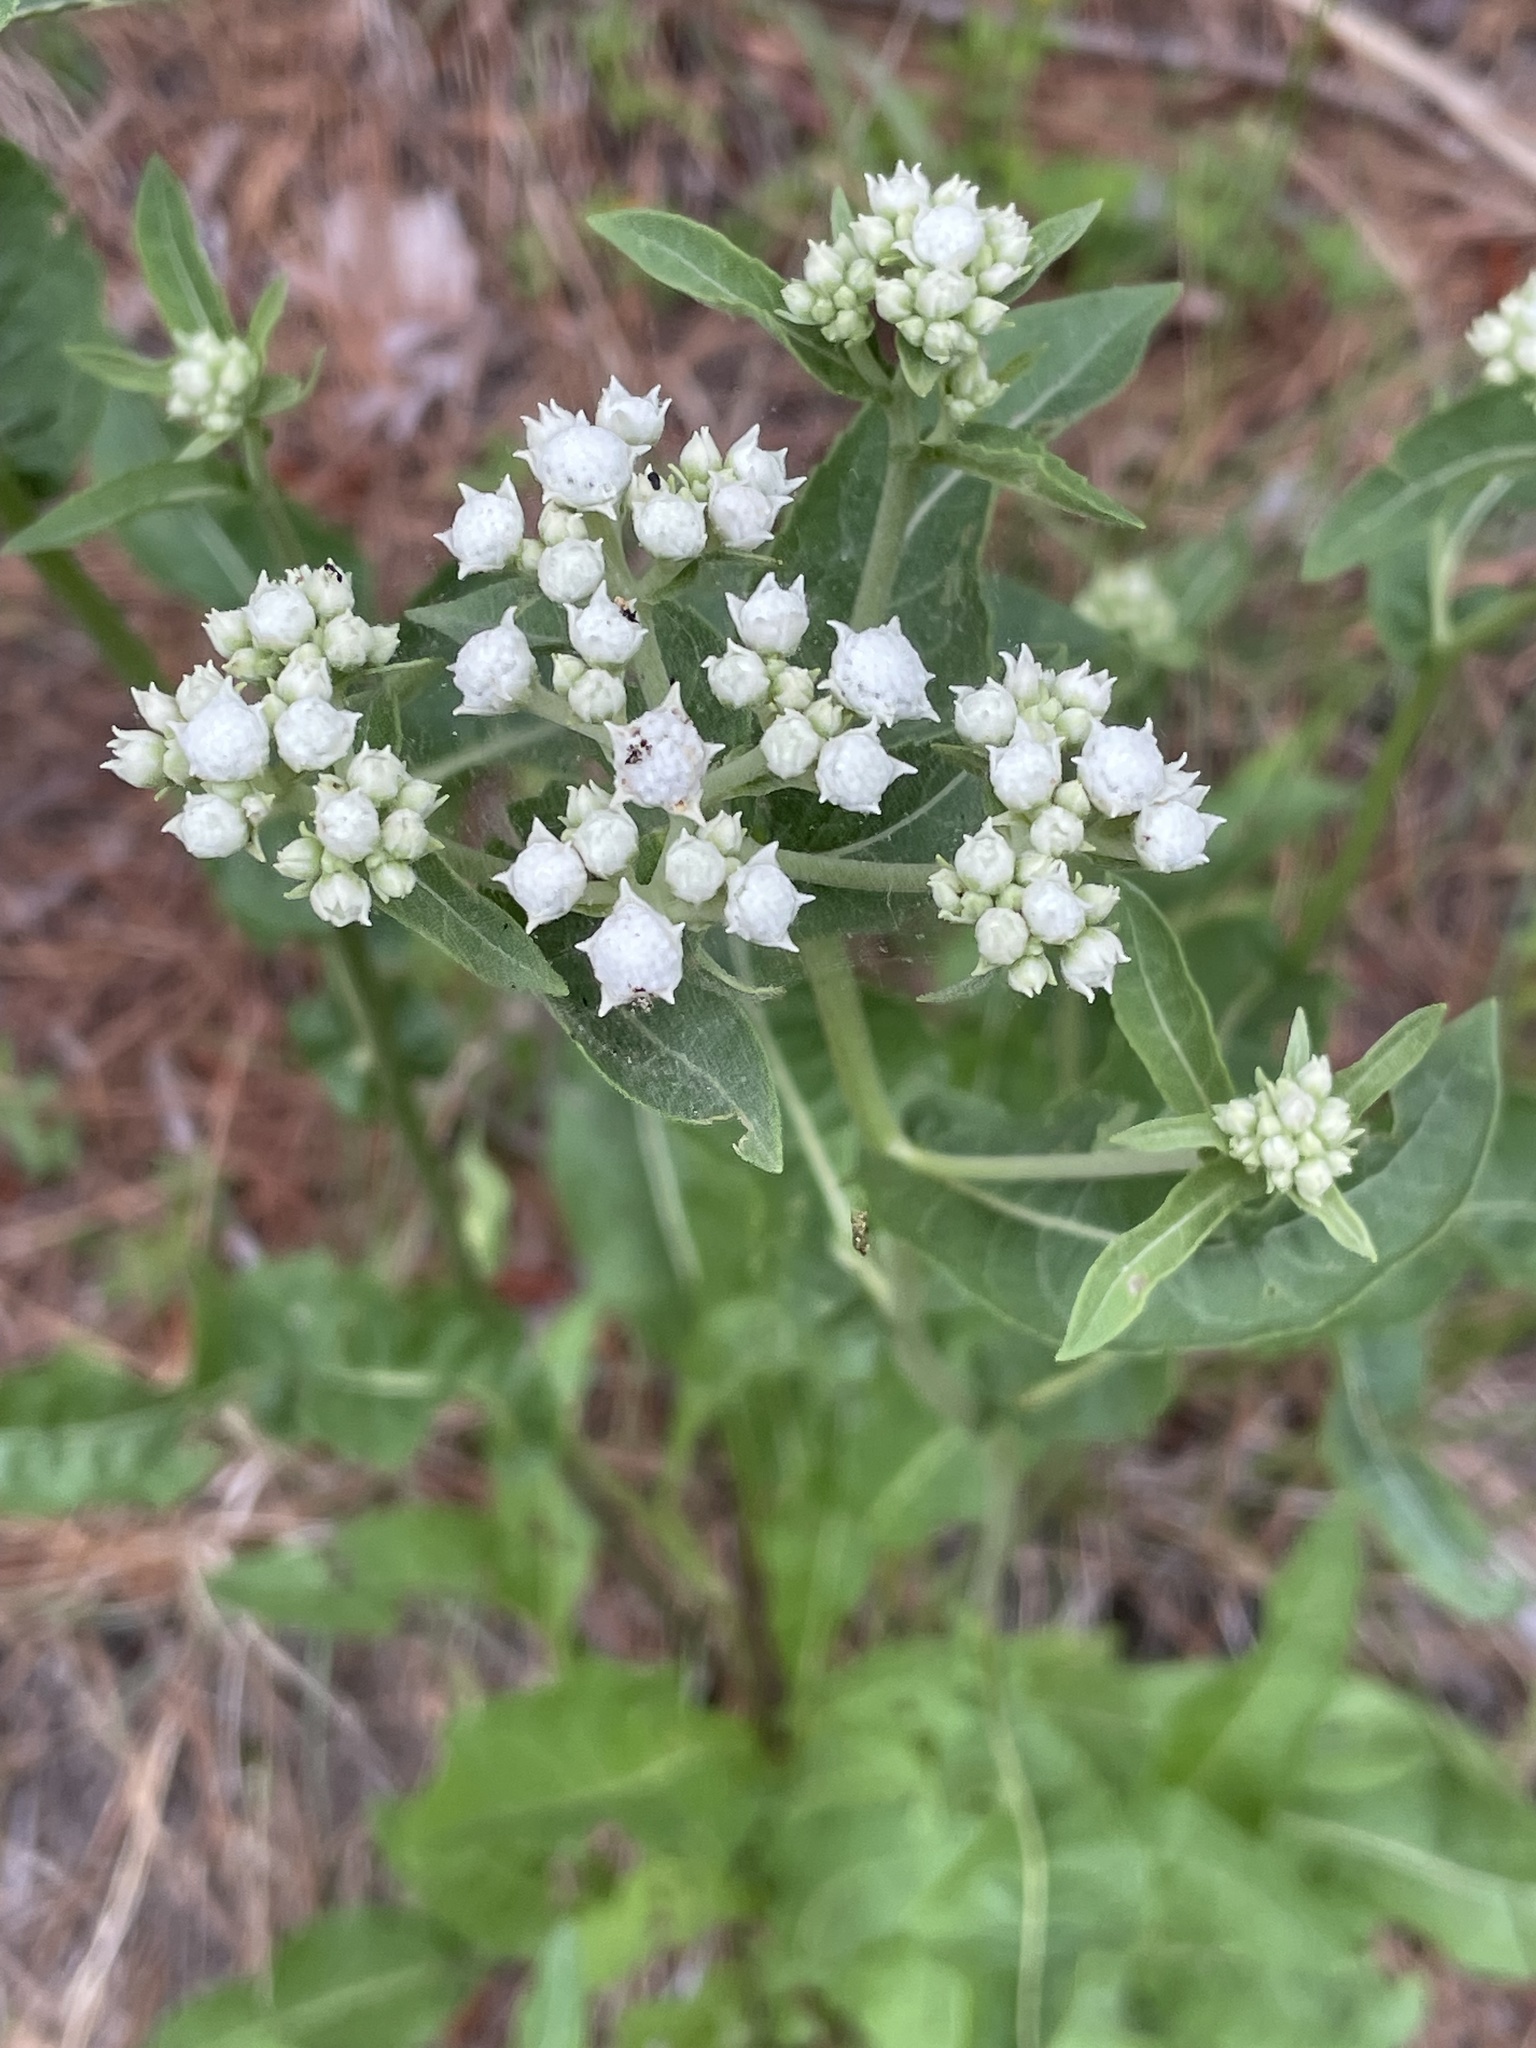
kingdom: Plantae
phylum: Tracheophyta
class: Magnoliopsida
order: Asterales
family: Asteraceae
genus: Parthenium
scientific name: Parthenium integrifolium
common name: American feverfew
